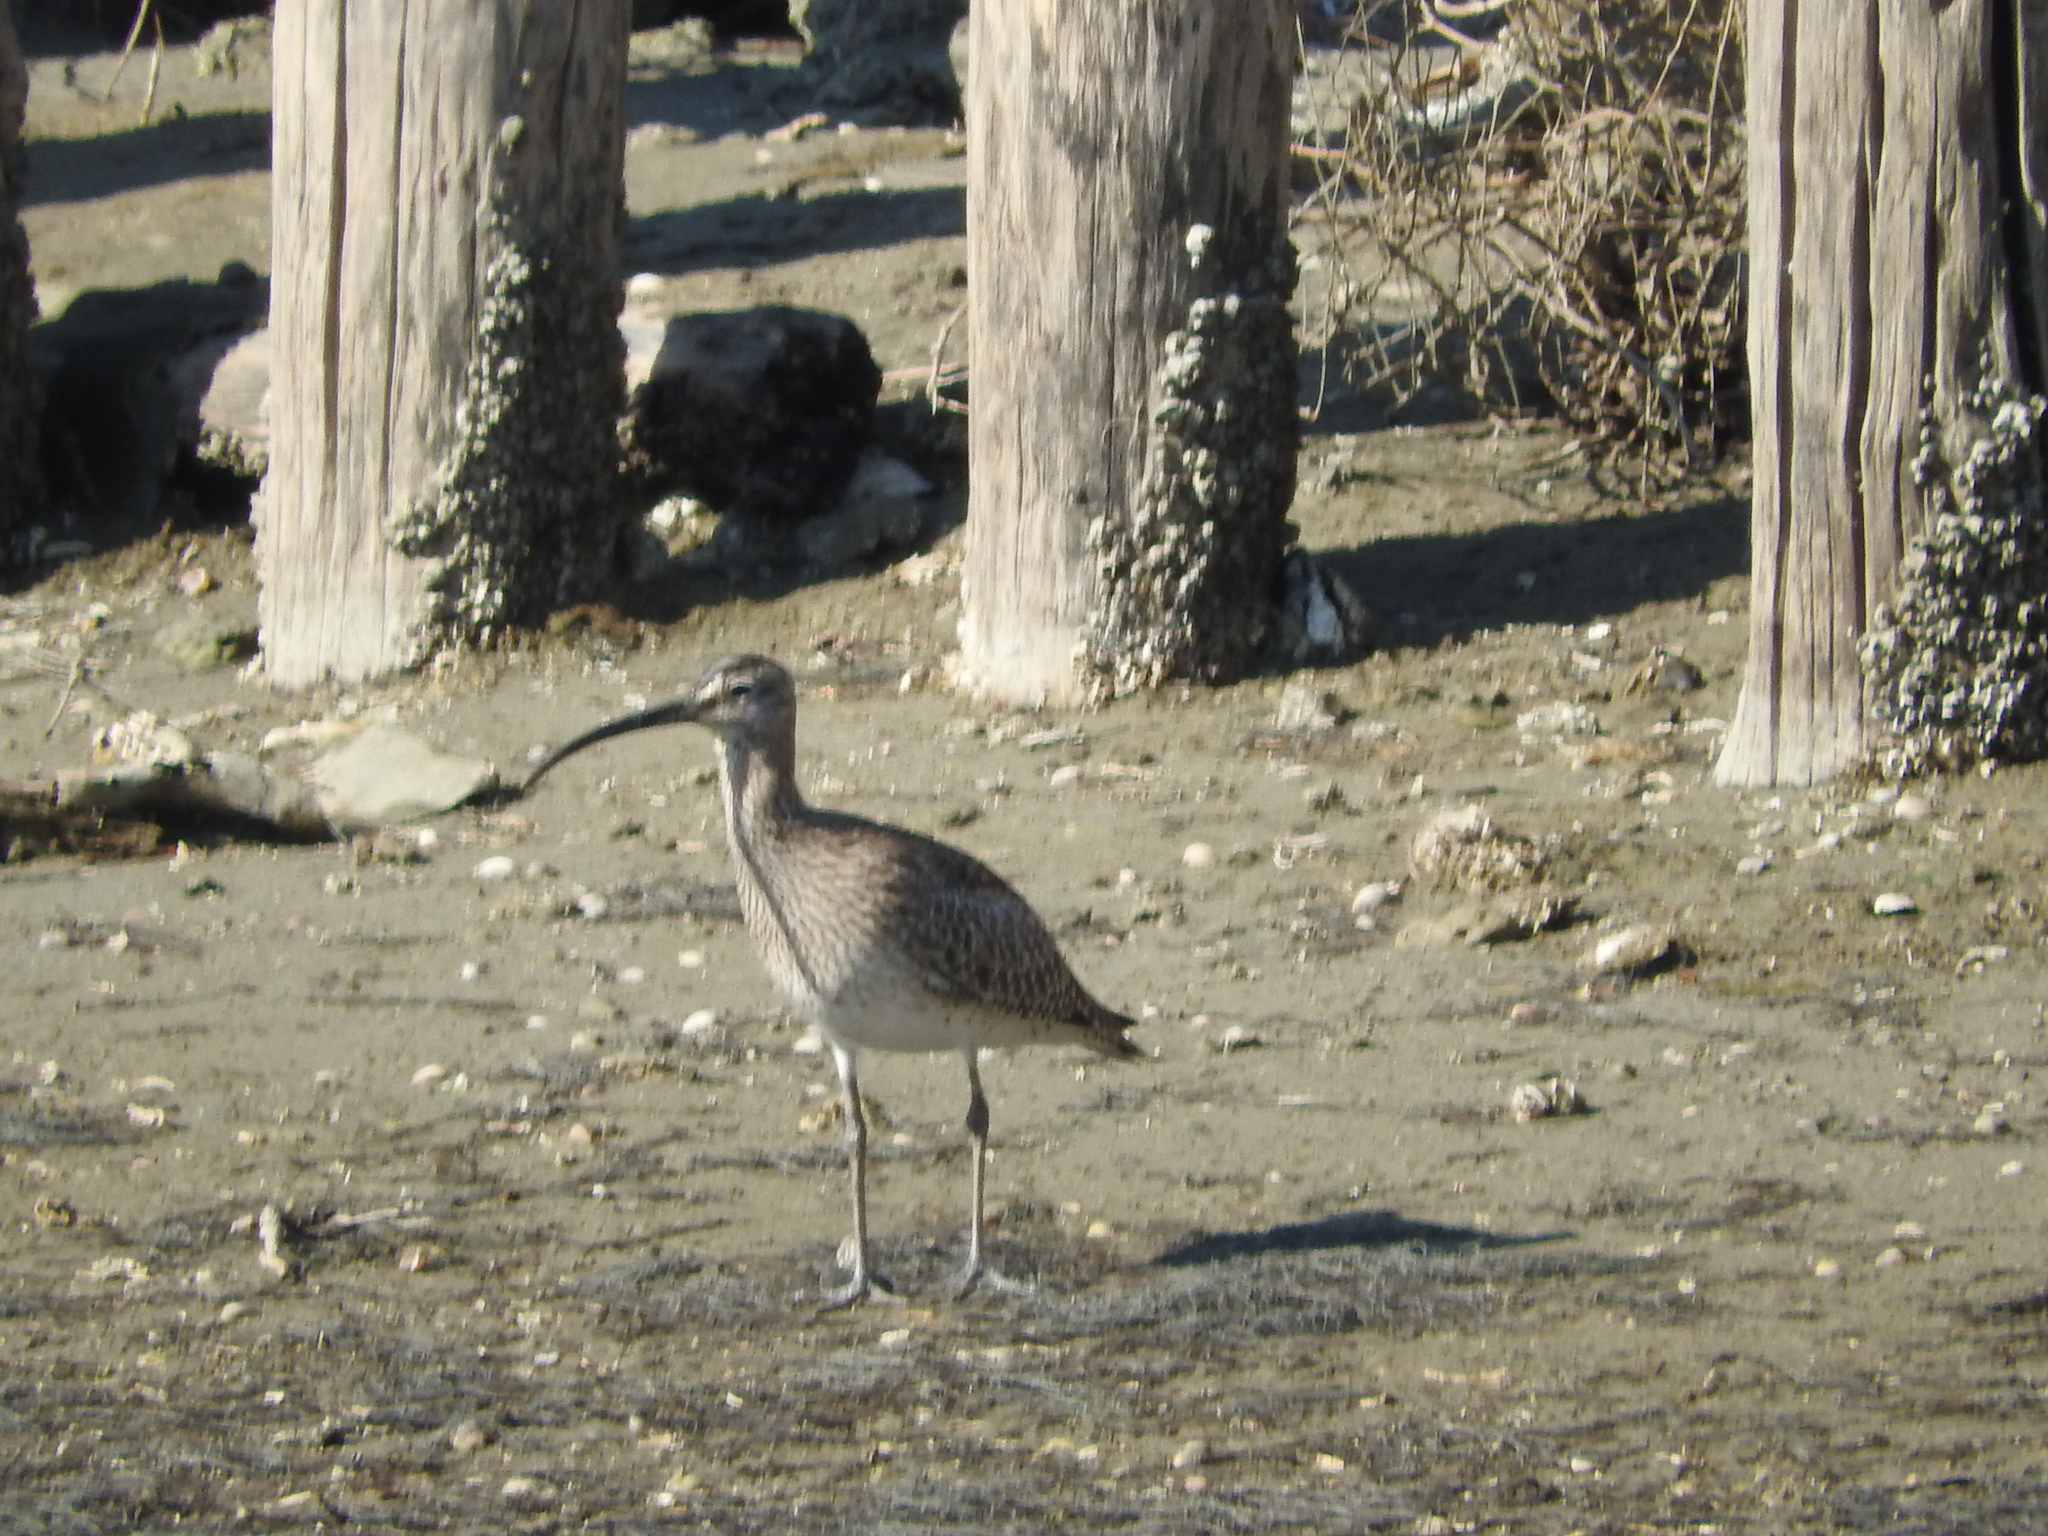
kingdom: Animalia
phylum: Chordata
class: Aves
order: Charadriiformes
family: Scolopacidae
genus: Numenius
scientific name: Numenius phaeopus
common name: Whimbrel
